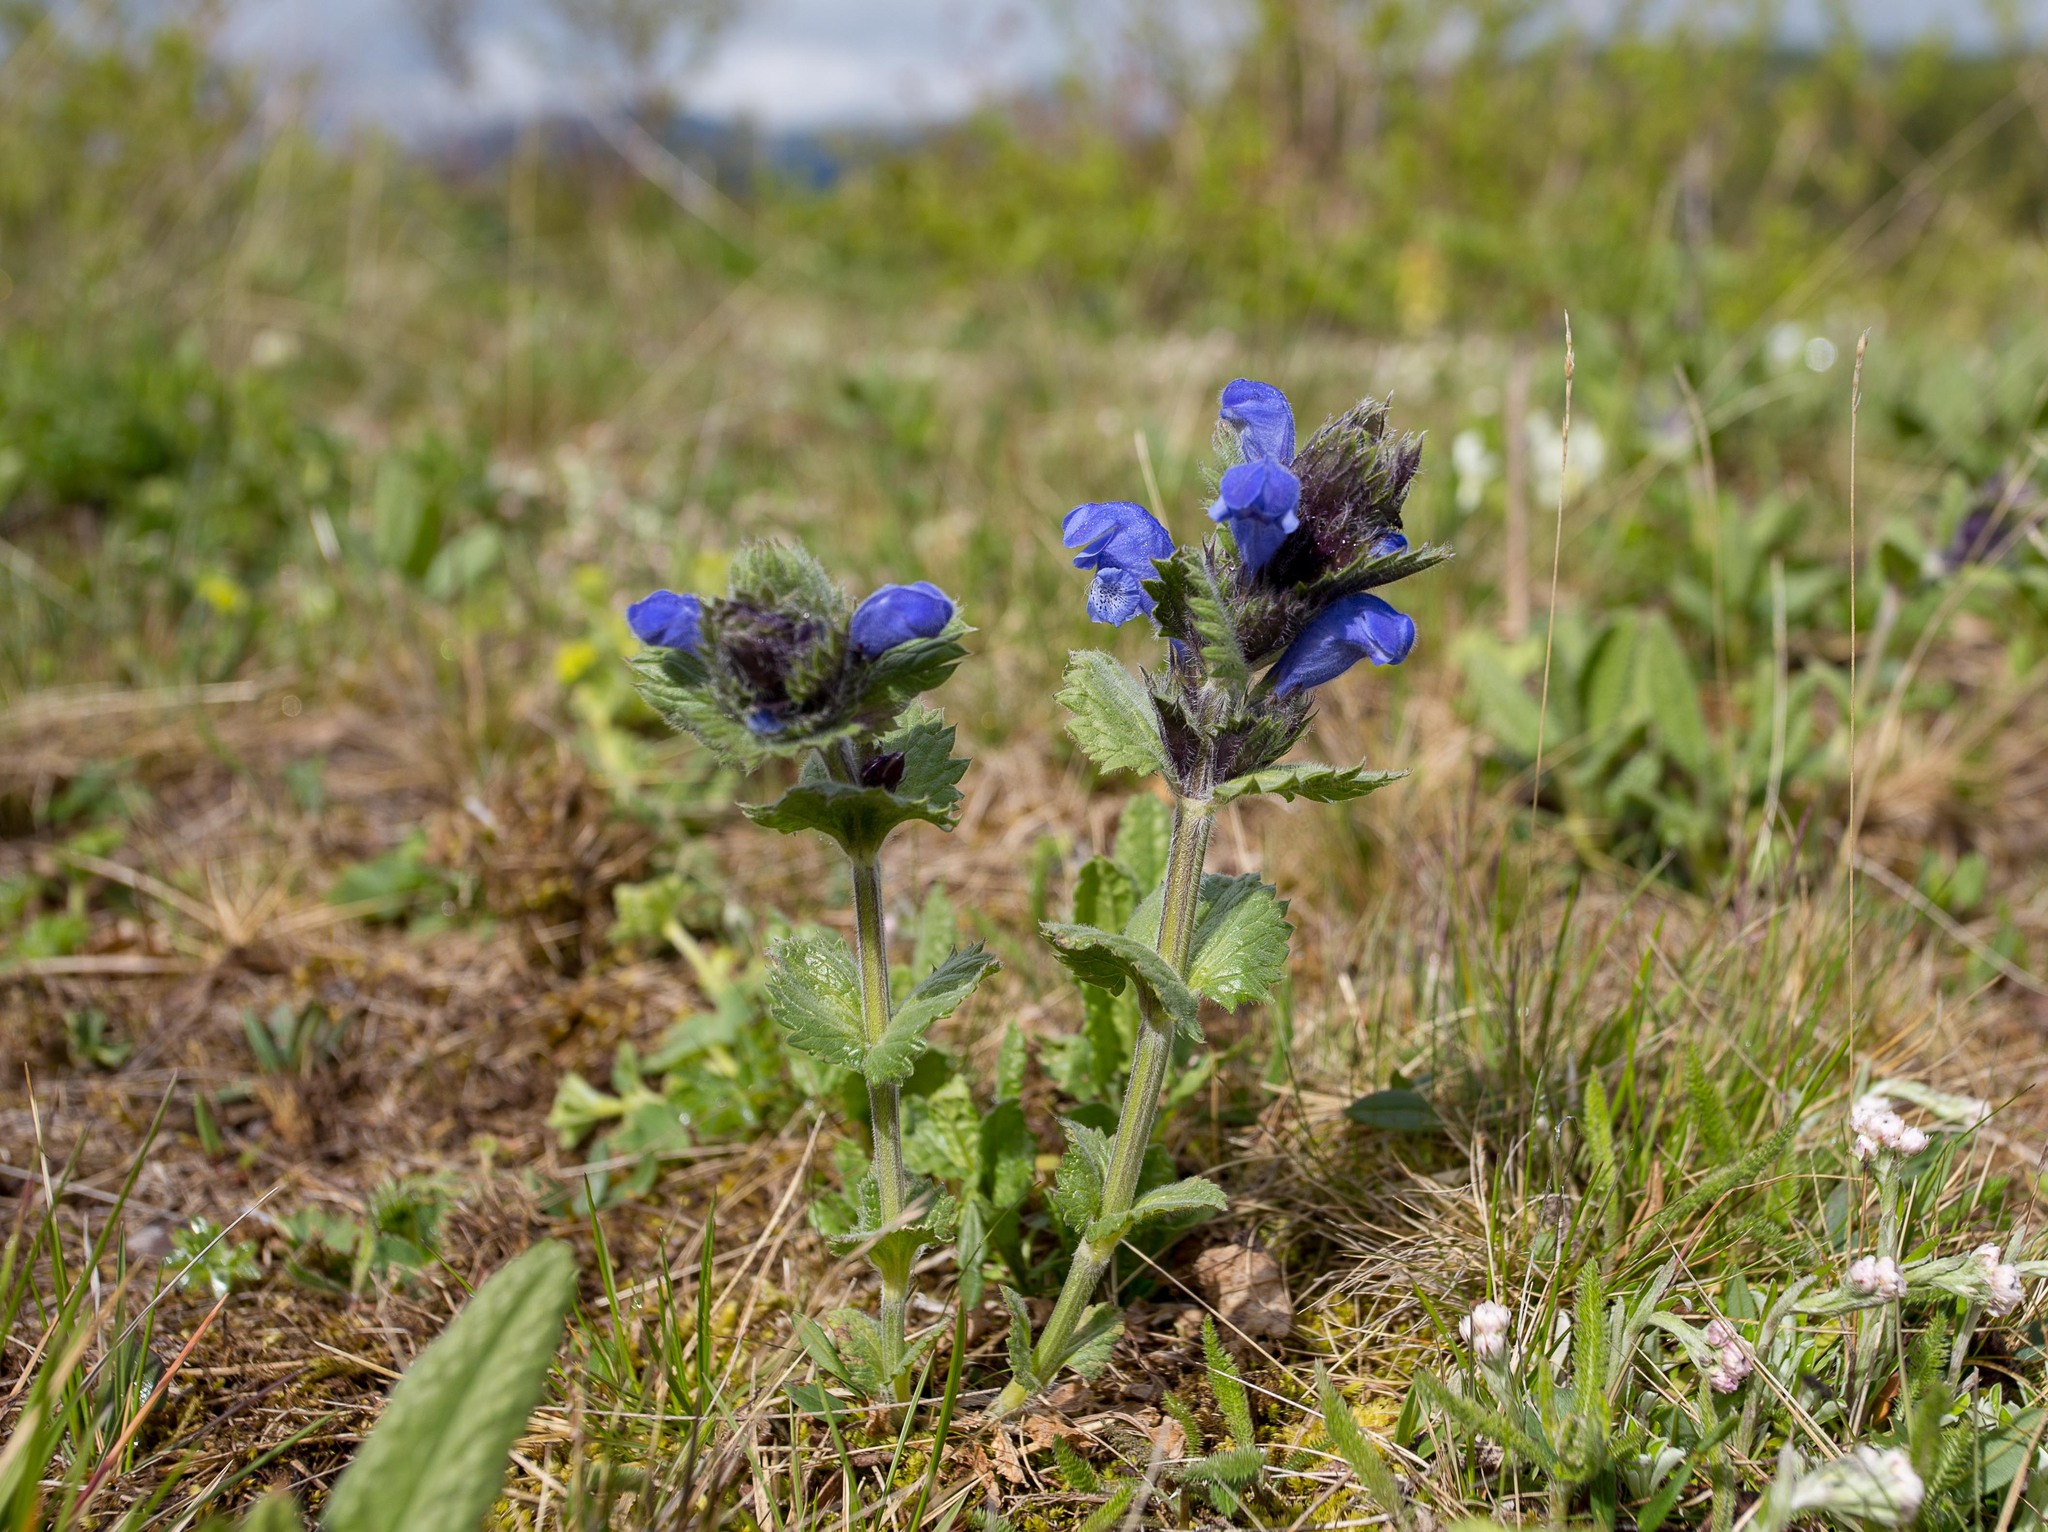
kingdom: Plantae
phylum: Tracheophyta
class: Magnoliopsida
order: Lamiales
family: Lamiaceae
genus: Dracocephalum
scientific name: Dracocephalum grandiflorum
